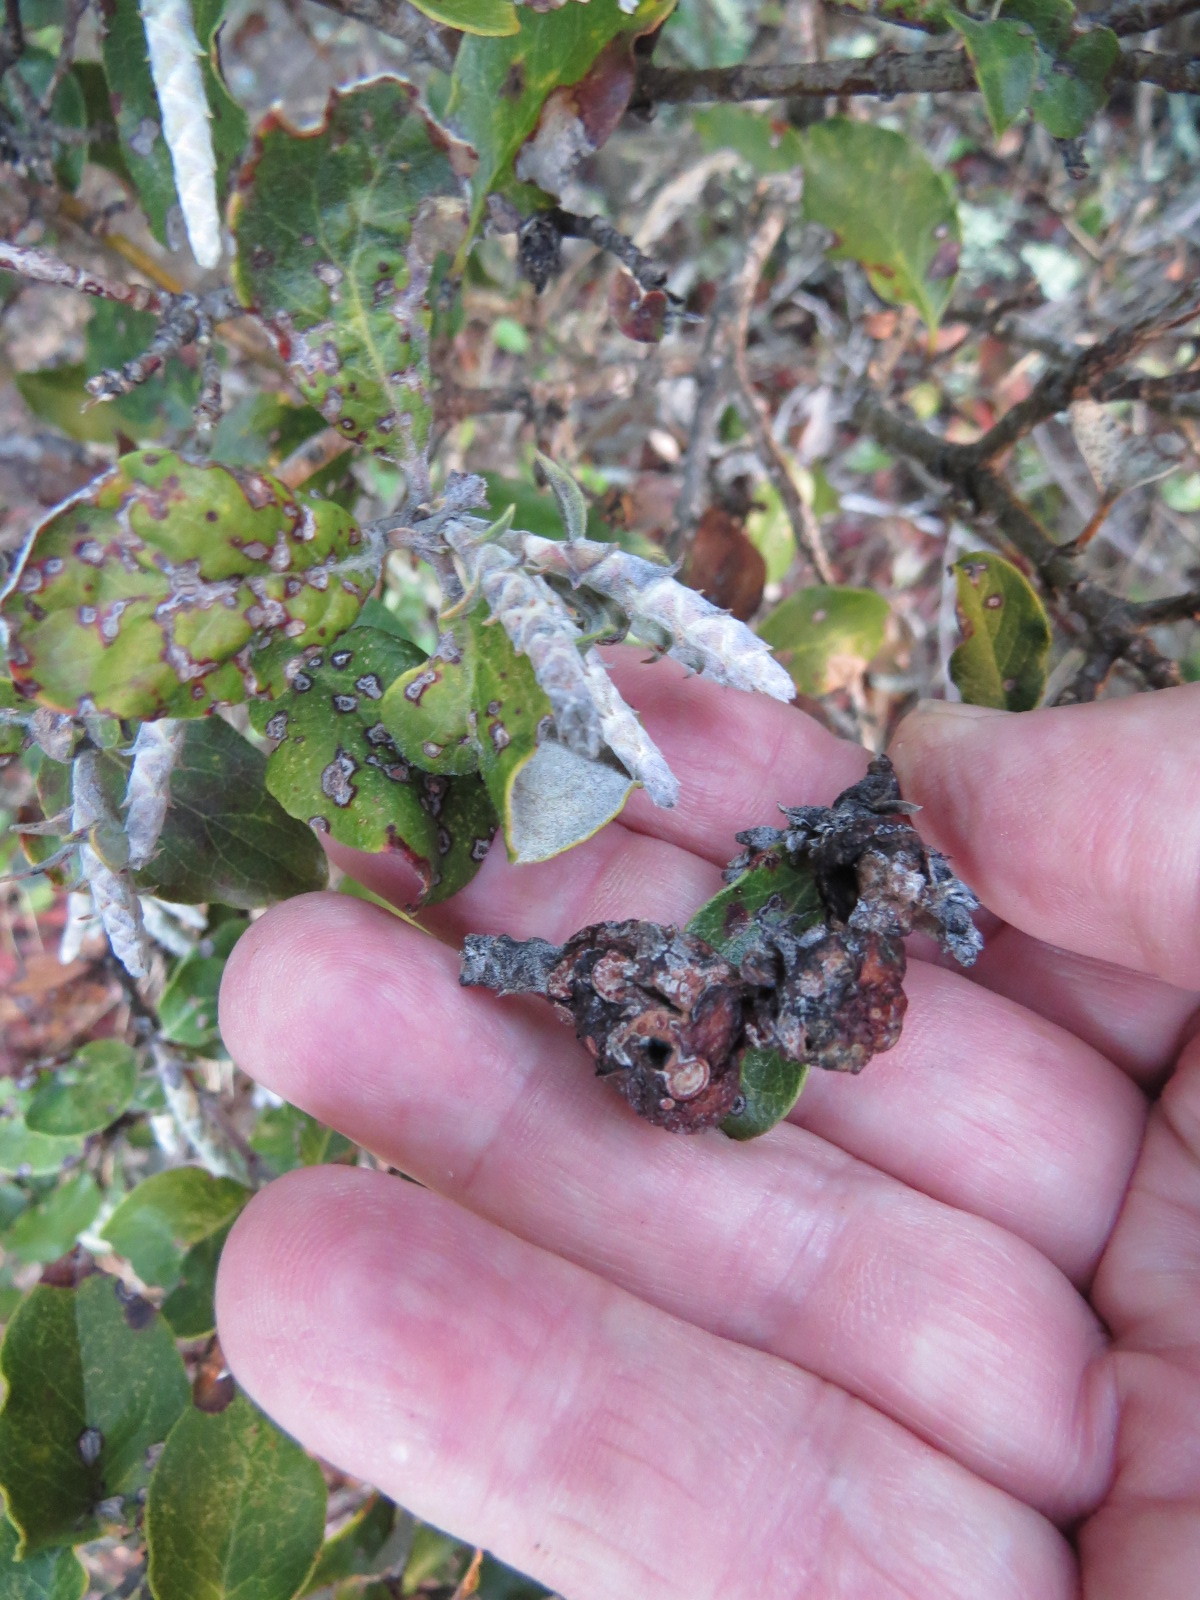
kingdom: Plantae
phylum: Tracheophyta
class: Magnoliopsida
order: Garryales
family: Garryaceae
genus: Garrya
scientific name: Garrya elliptica
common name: Silk-tassel
